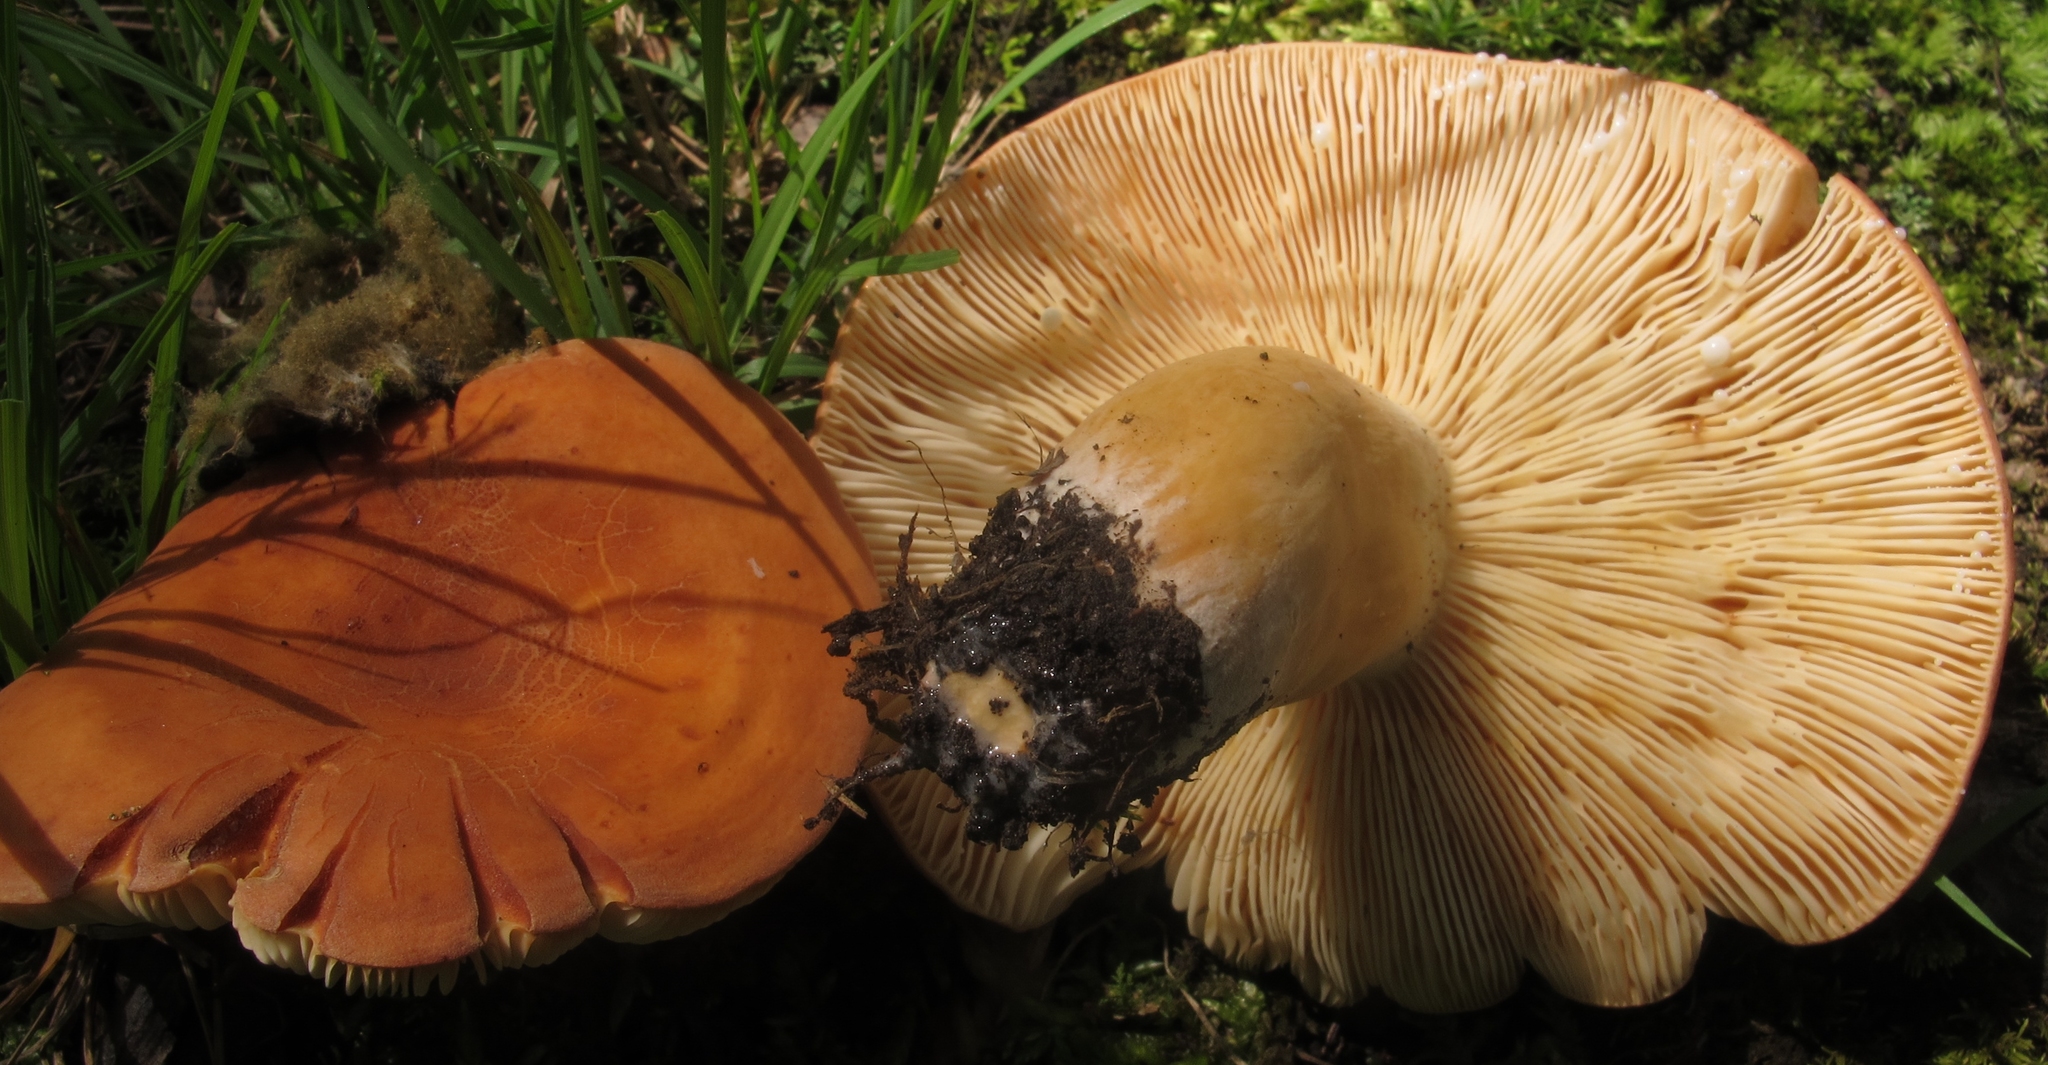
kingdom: Fungi
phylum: Basidiomycota
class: Agaricomycetes
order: Russulales
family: Russulaceae
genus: Lactifluus
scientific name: Lactifluus volemus
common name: Fishy milkcap
